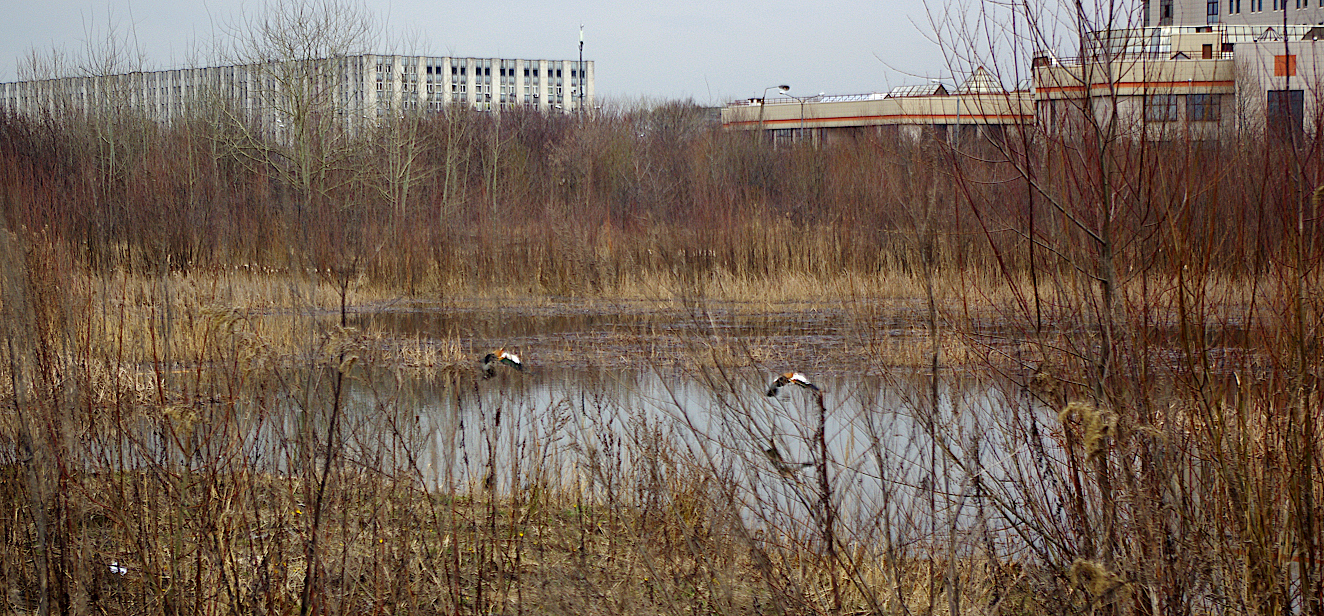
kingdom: Animalia
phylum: Chordata
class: Aves
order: Anseriformes
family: Anatidae
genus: Tadorna
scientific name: Tadorna ferruginea
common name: Ruddy shelduck
